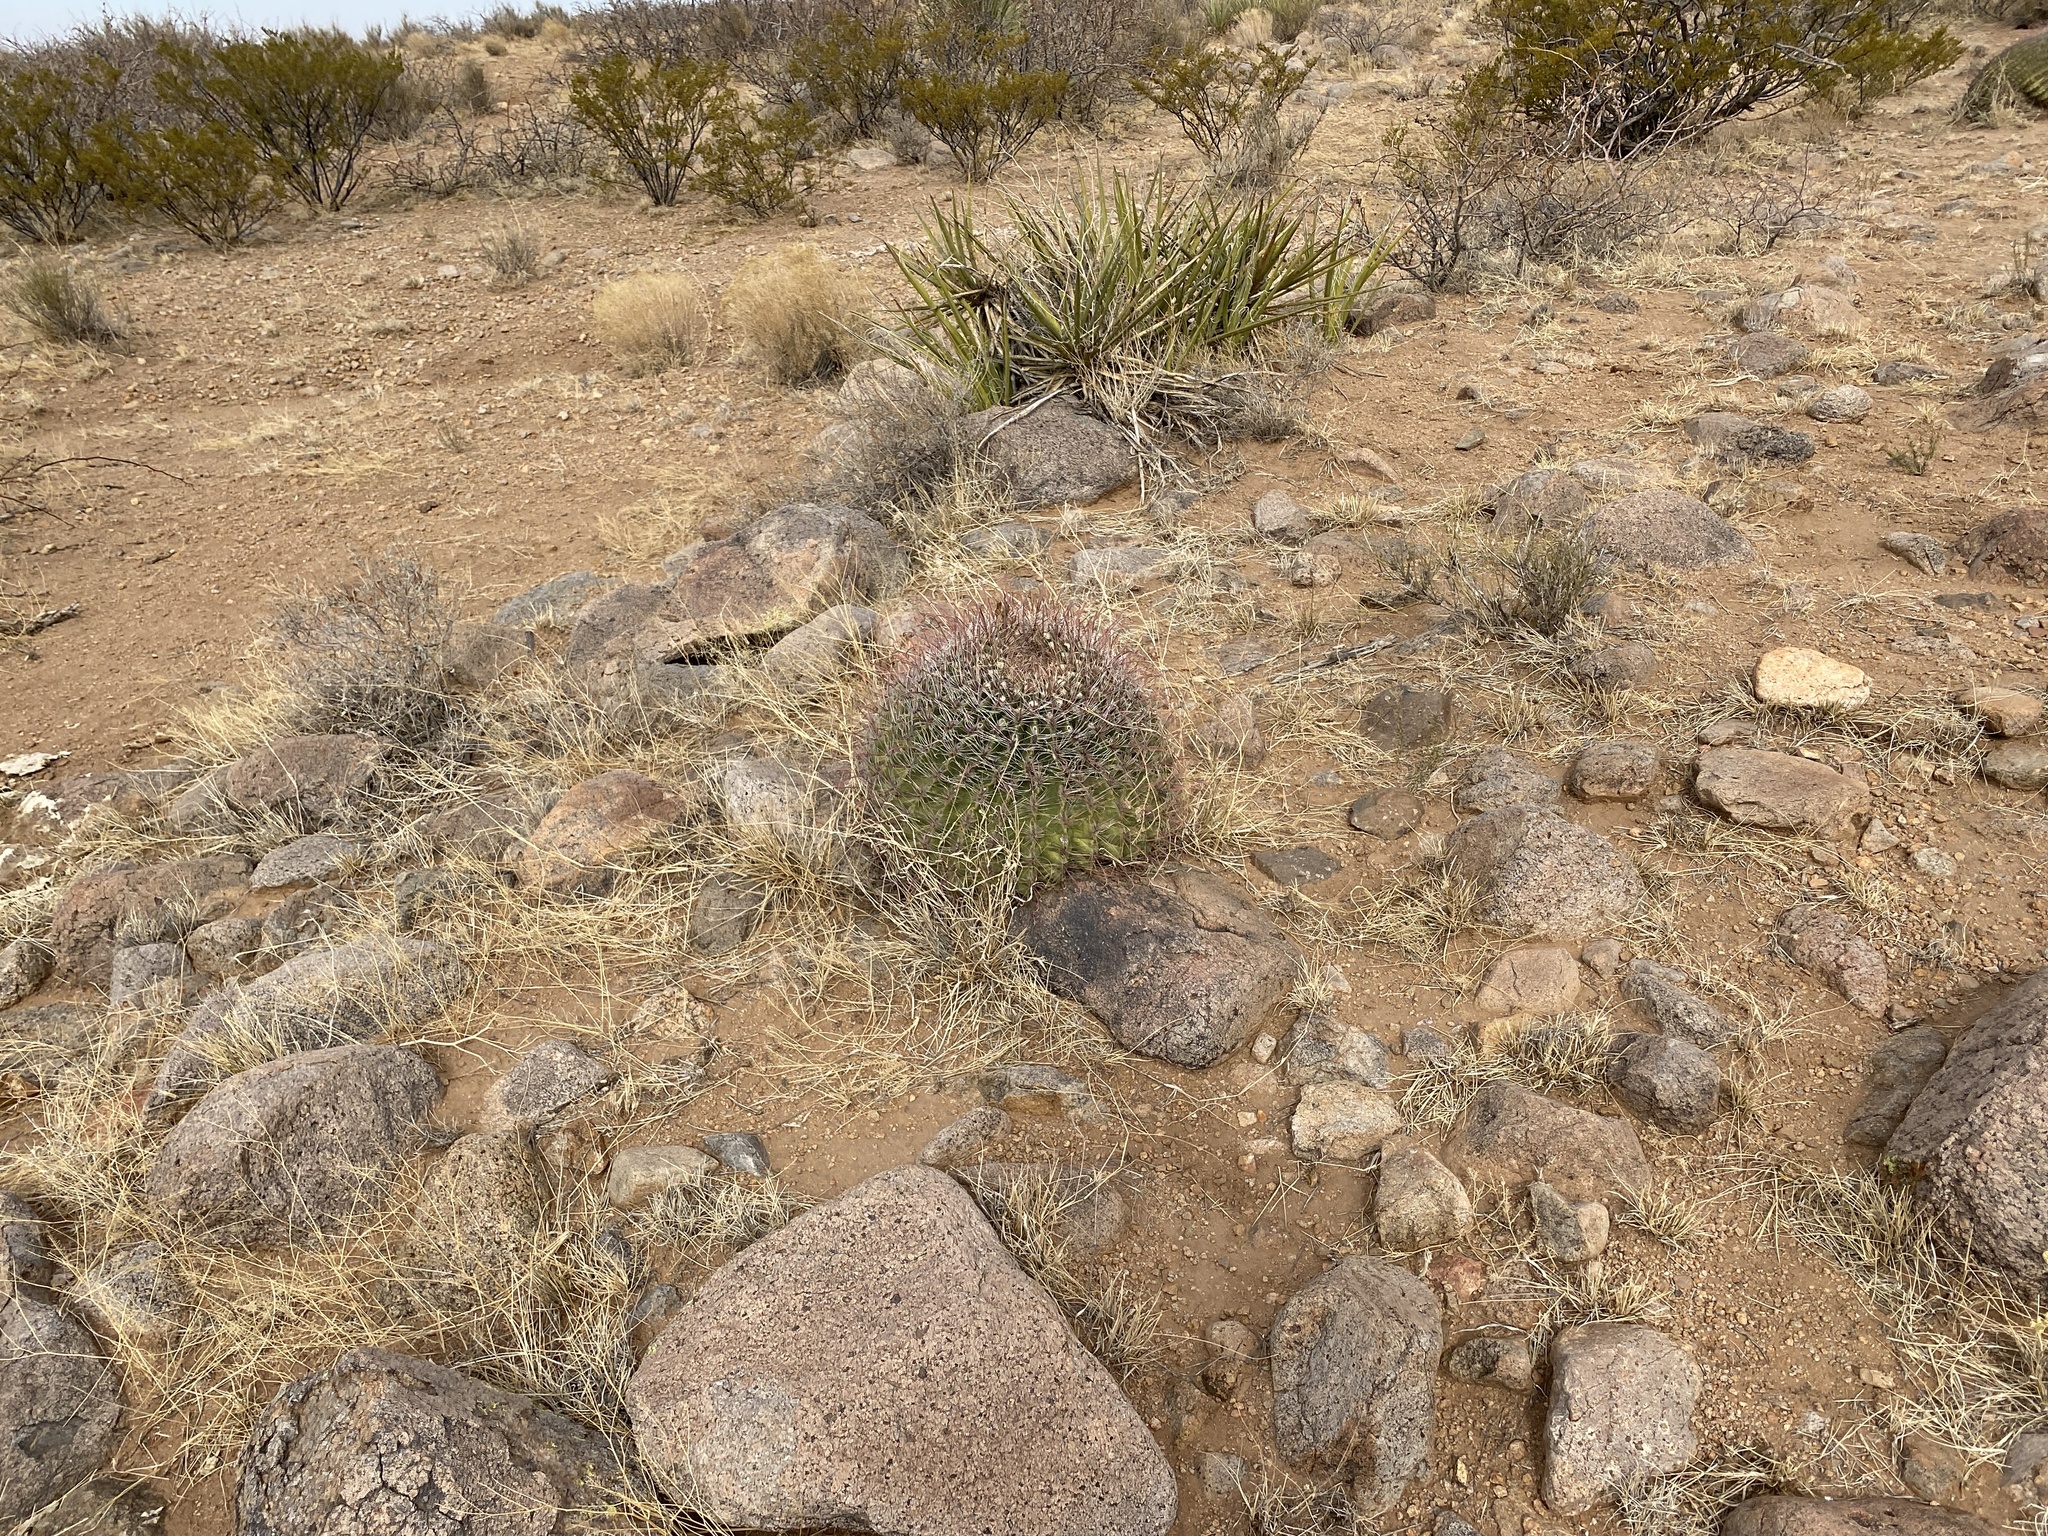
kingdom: Plantae
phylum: Tracheophyta
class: Magnoliopsida
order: Caryophyllales
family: Cactaceae
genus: Ferocactus
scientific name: Ferocactus wislizeni
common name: Candy barrel cactus
